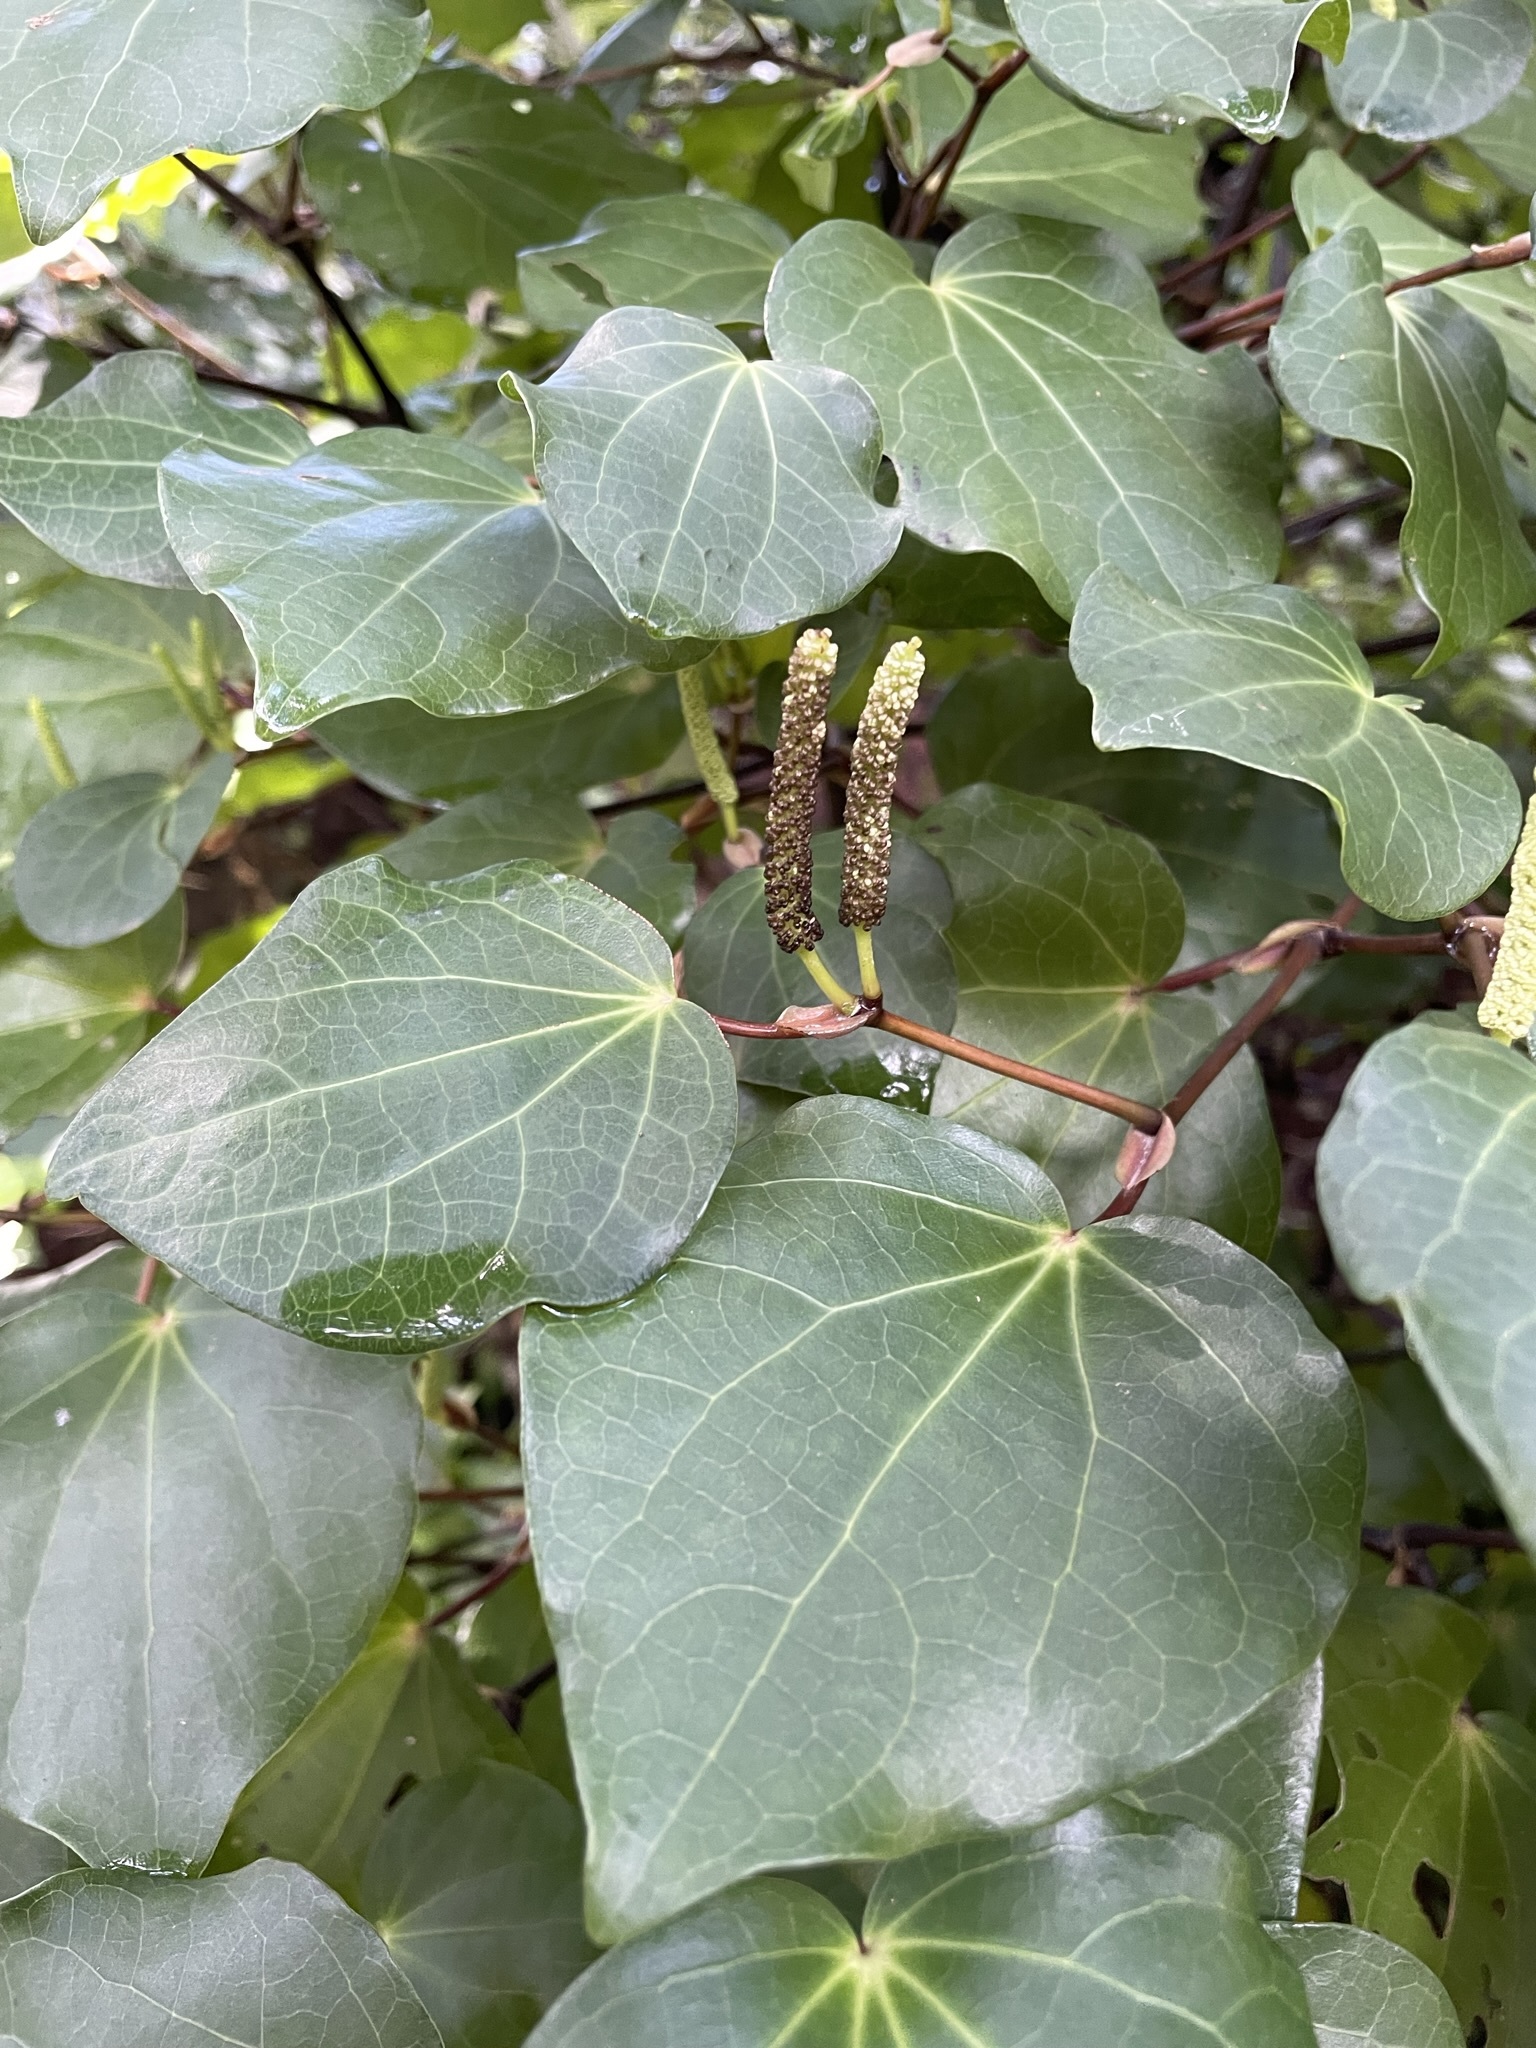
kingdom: Plantae
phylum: Tracheophyta
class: Magnoliopsida
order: Piperales
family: Piperaceae
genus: Macropiper
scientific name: Macropiper excelsum
